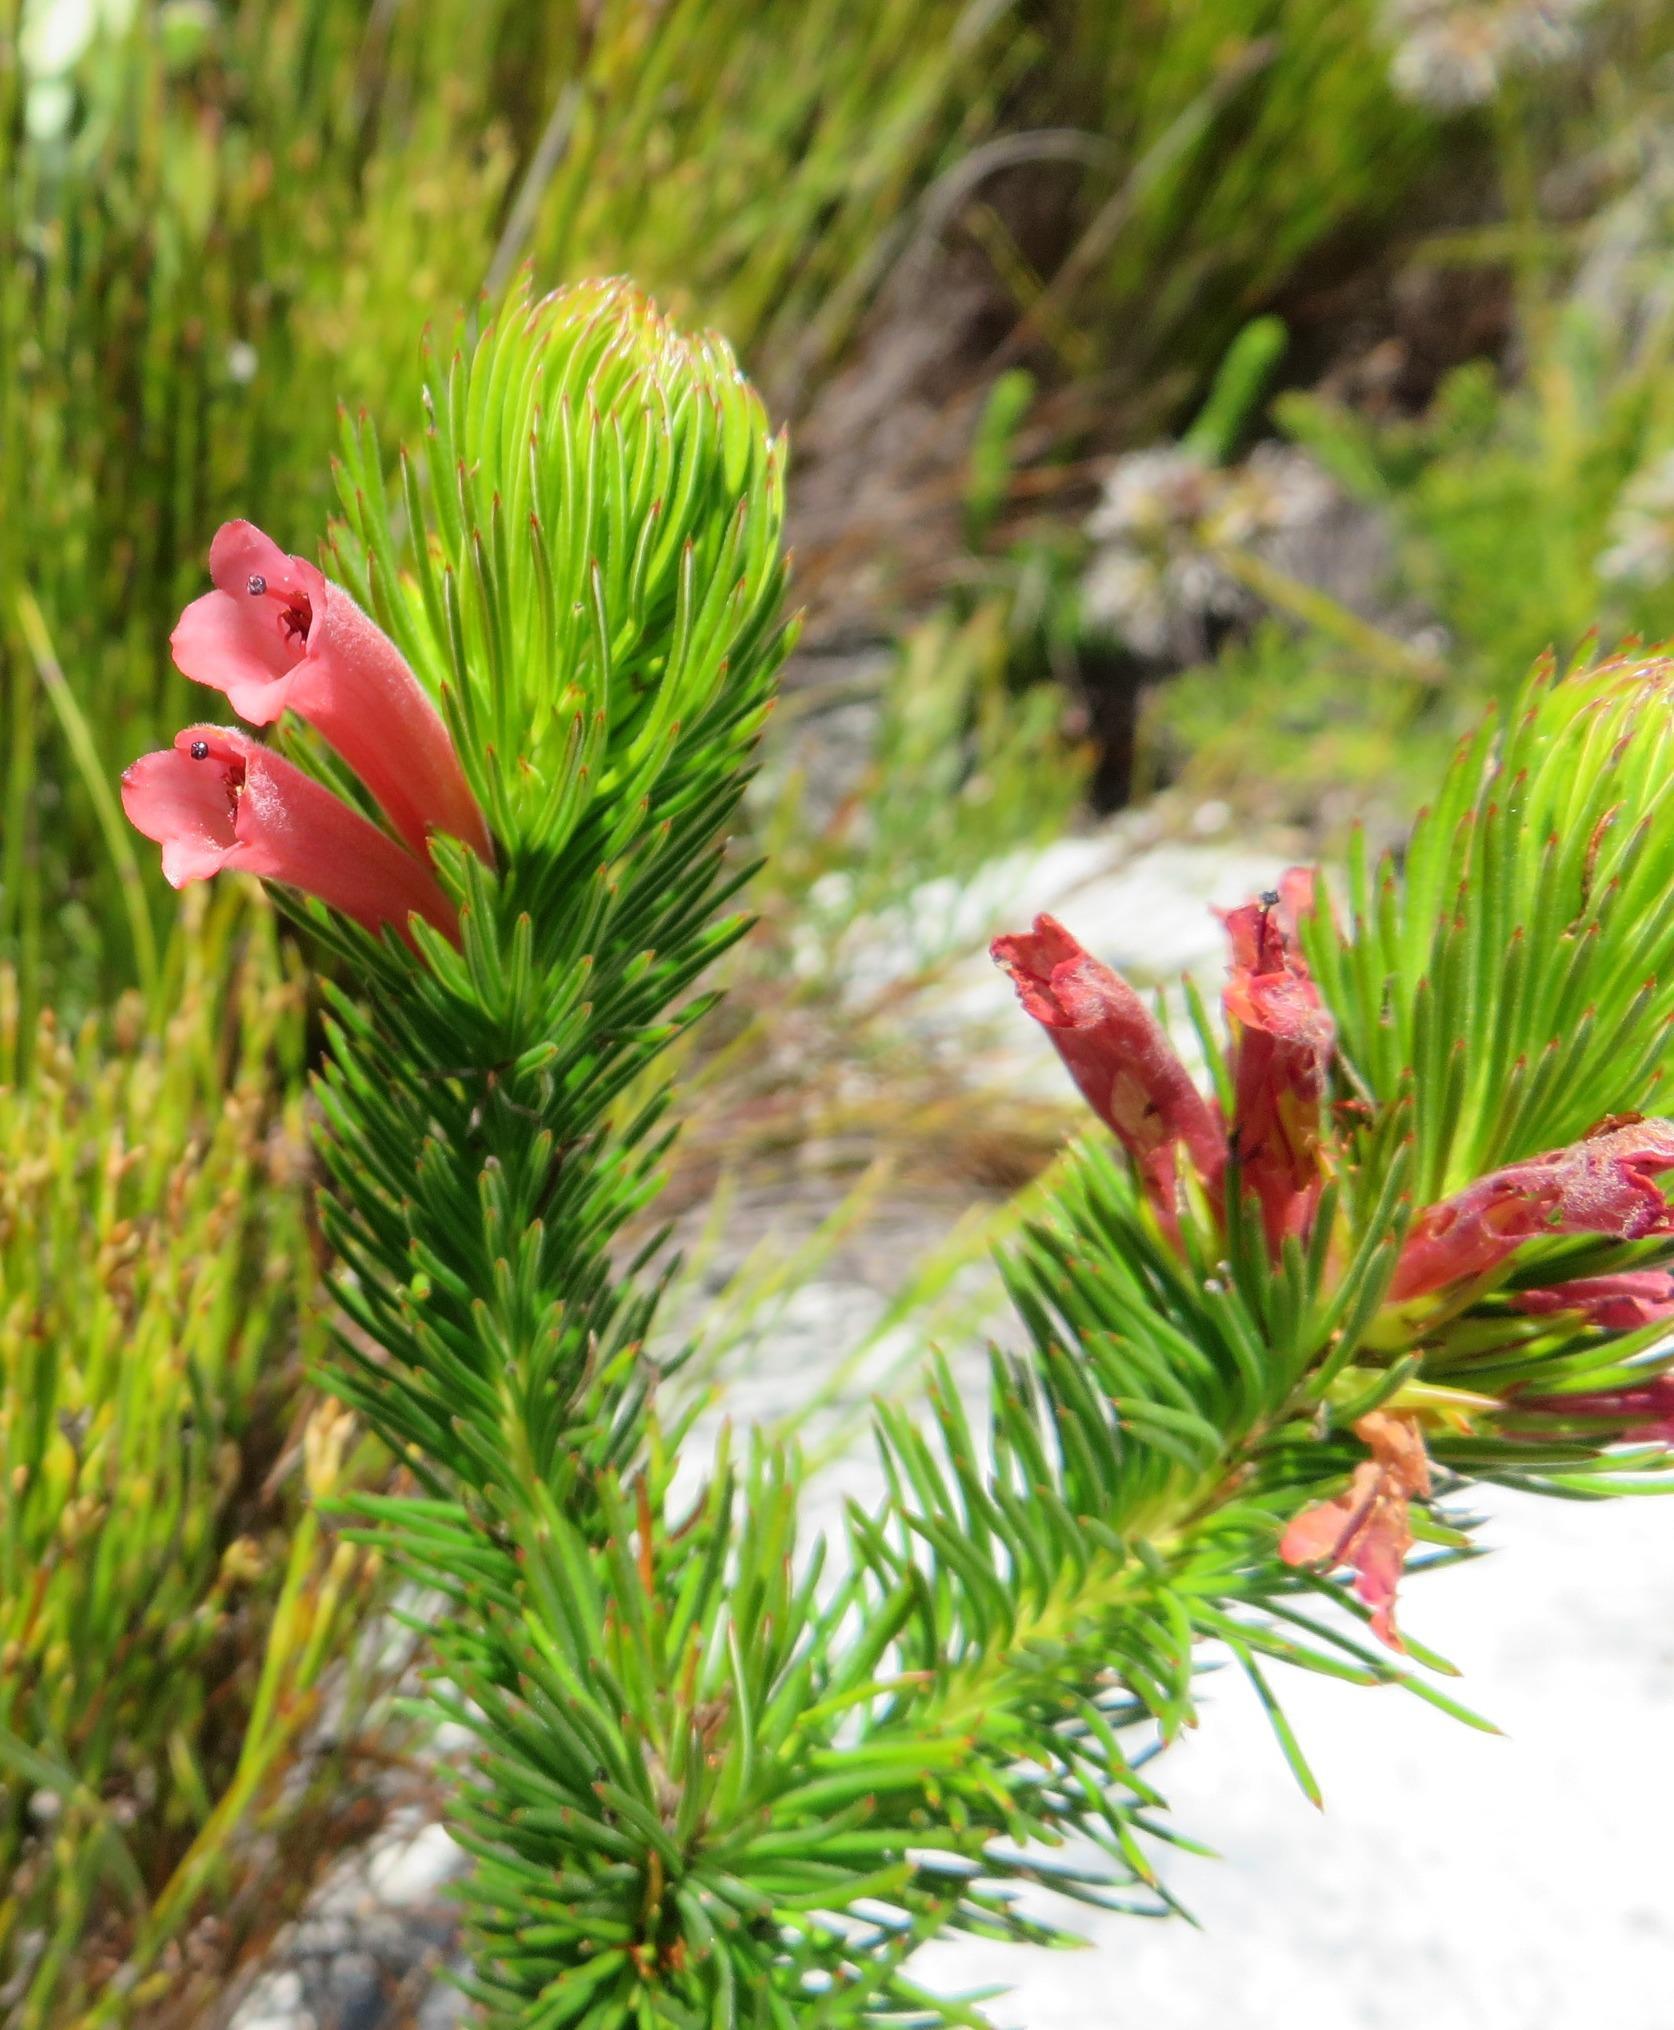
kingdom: Plantae
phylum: Tracheophyta
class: Magnoliopsida
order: Ericales
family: Ericaceae
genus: Erica
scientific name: Erica vestita
